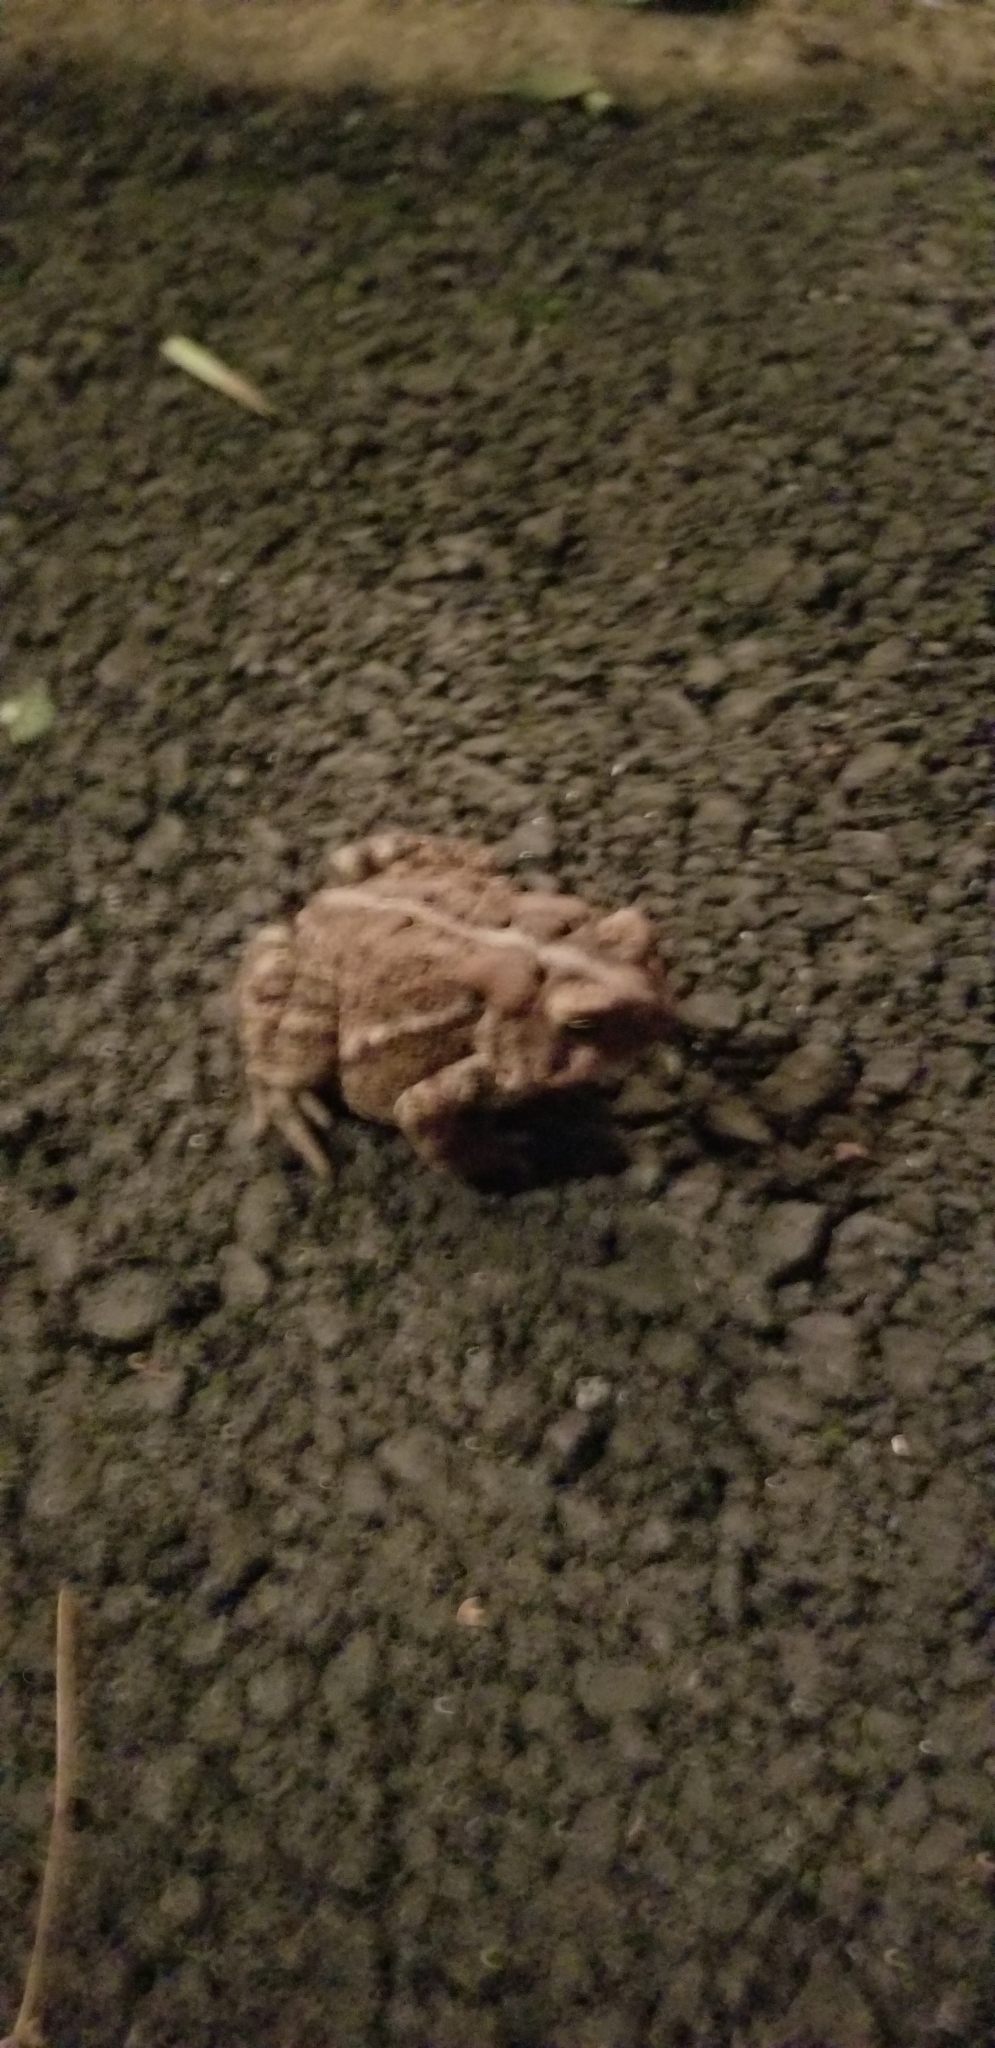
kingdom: Animalia
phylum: Chordata
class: Amphibia
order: Anura
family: Bufonidae
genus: Anaxyrus
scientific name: Anaxyrus americanus
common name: American toad
